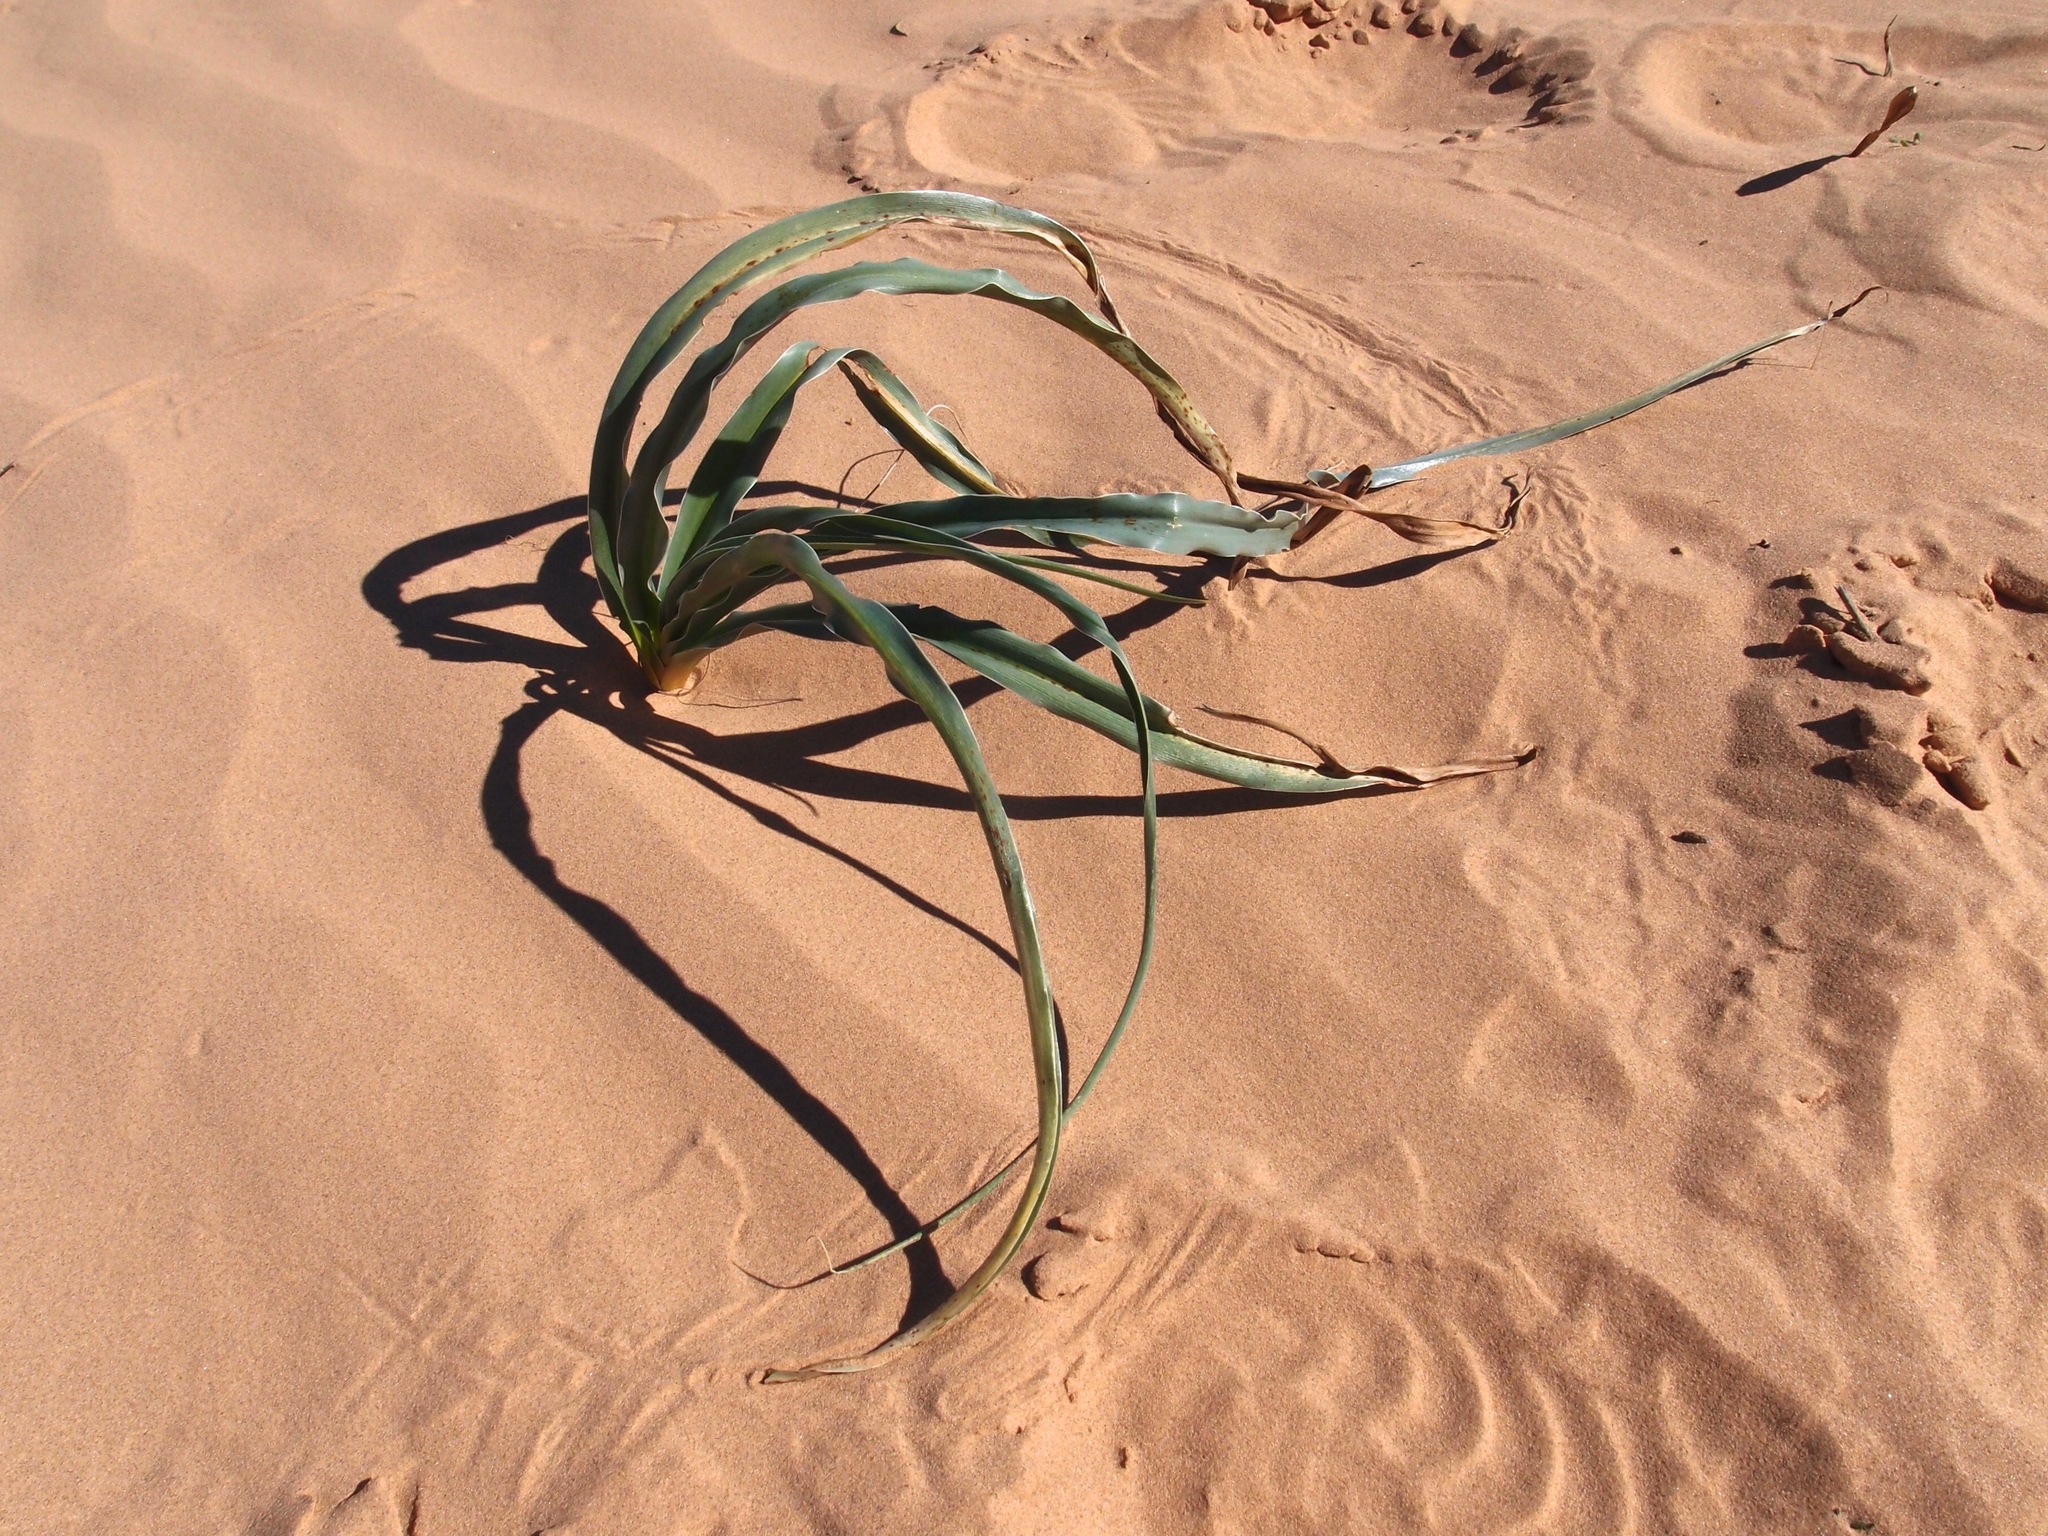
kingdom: Plantae
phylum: Tracheophyta
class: Liliopsida
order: Asparagales
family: Asparagaceae
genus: Hesperocallis
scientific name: Hesperocallis undulata
